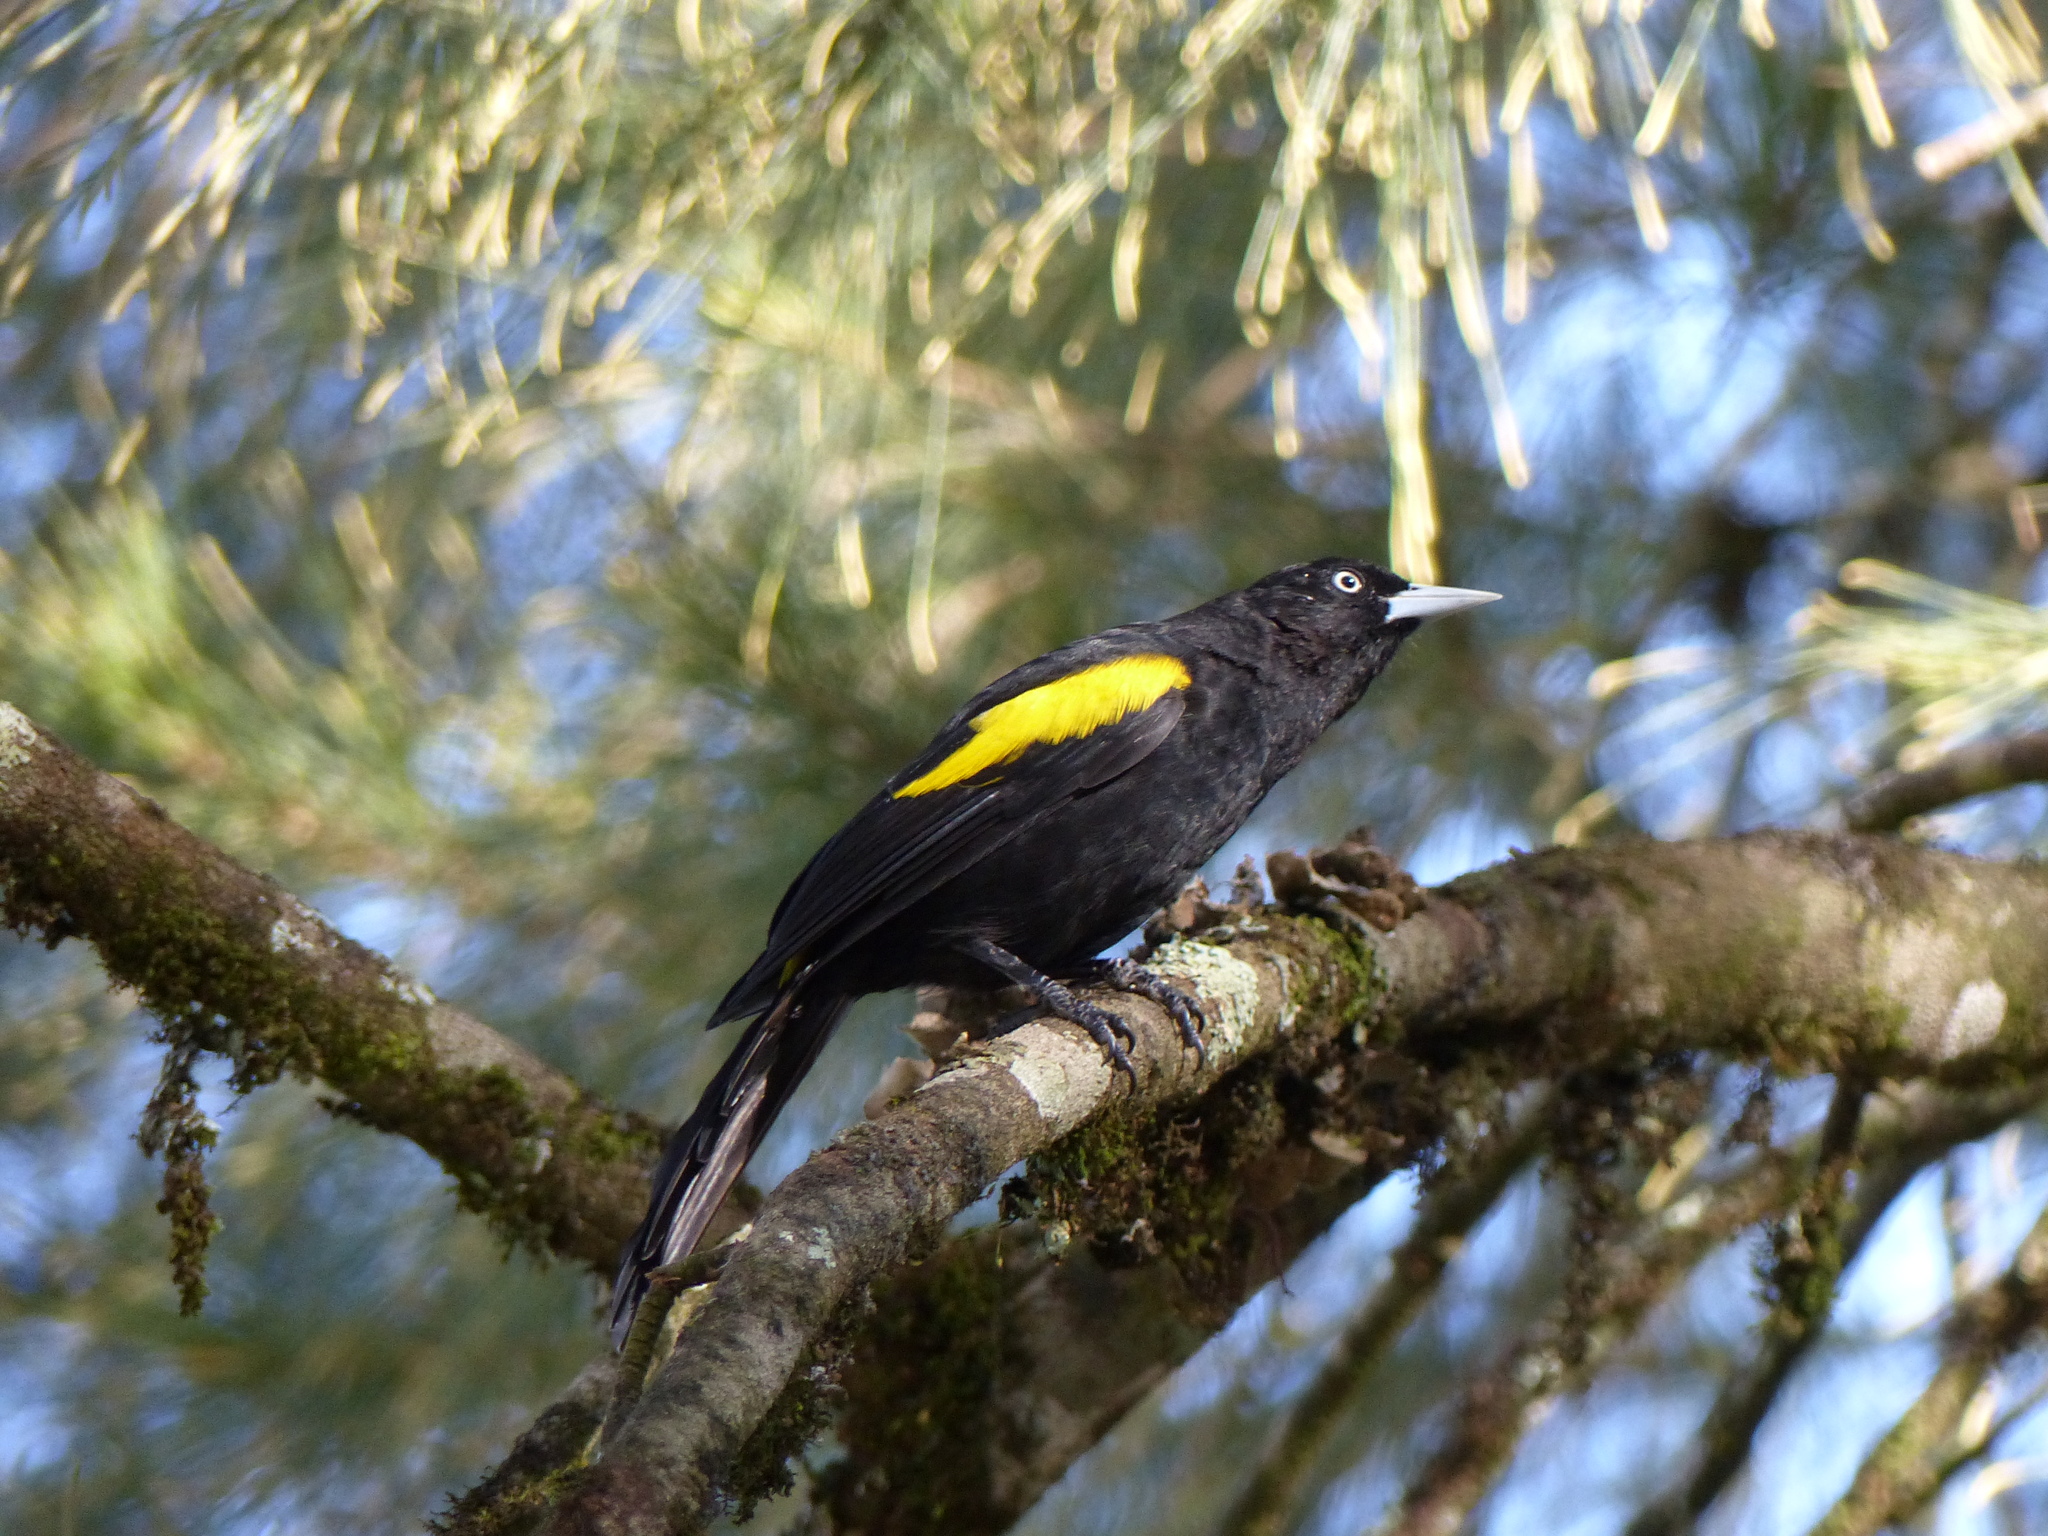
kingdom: Animalia
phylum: Chordata
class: Aves
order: Passeriformes
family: Icteridae
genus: Cacicus
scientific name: Cacicus chrysopterus
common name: Golden-winged cacique
